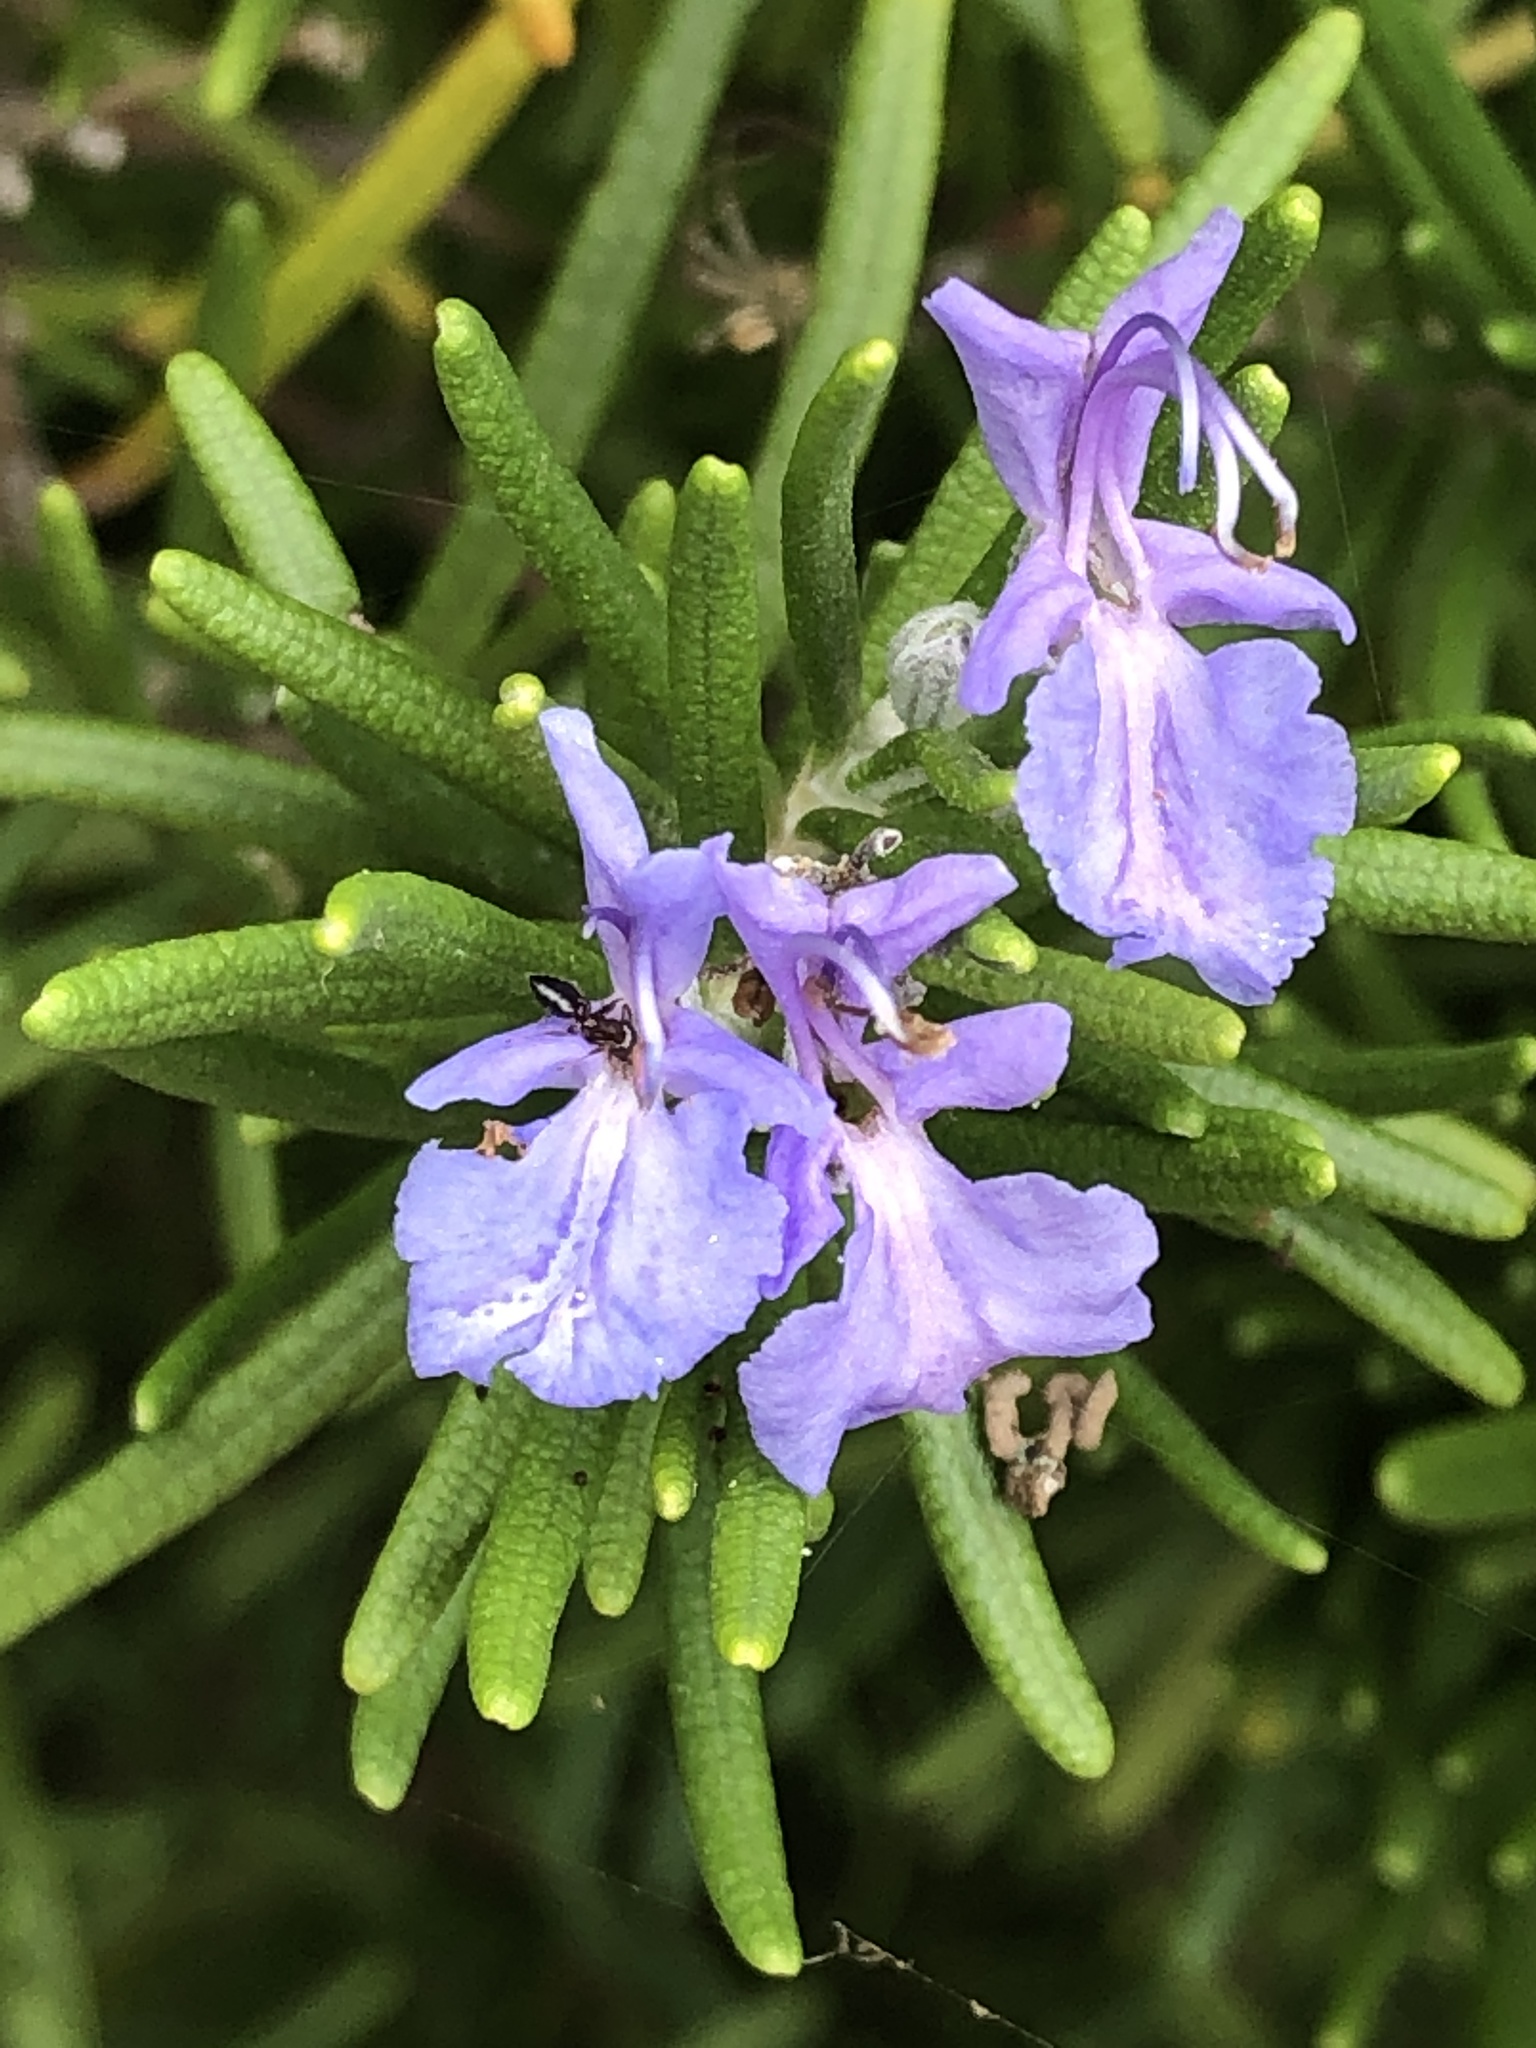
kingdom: Plantae
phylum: Tracheophyta
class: Magnoliopsida
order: Lamiales
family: Lamiaceae
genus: Salvia
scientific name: Salvia rosmarinus
